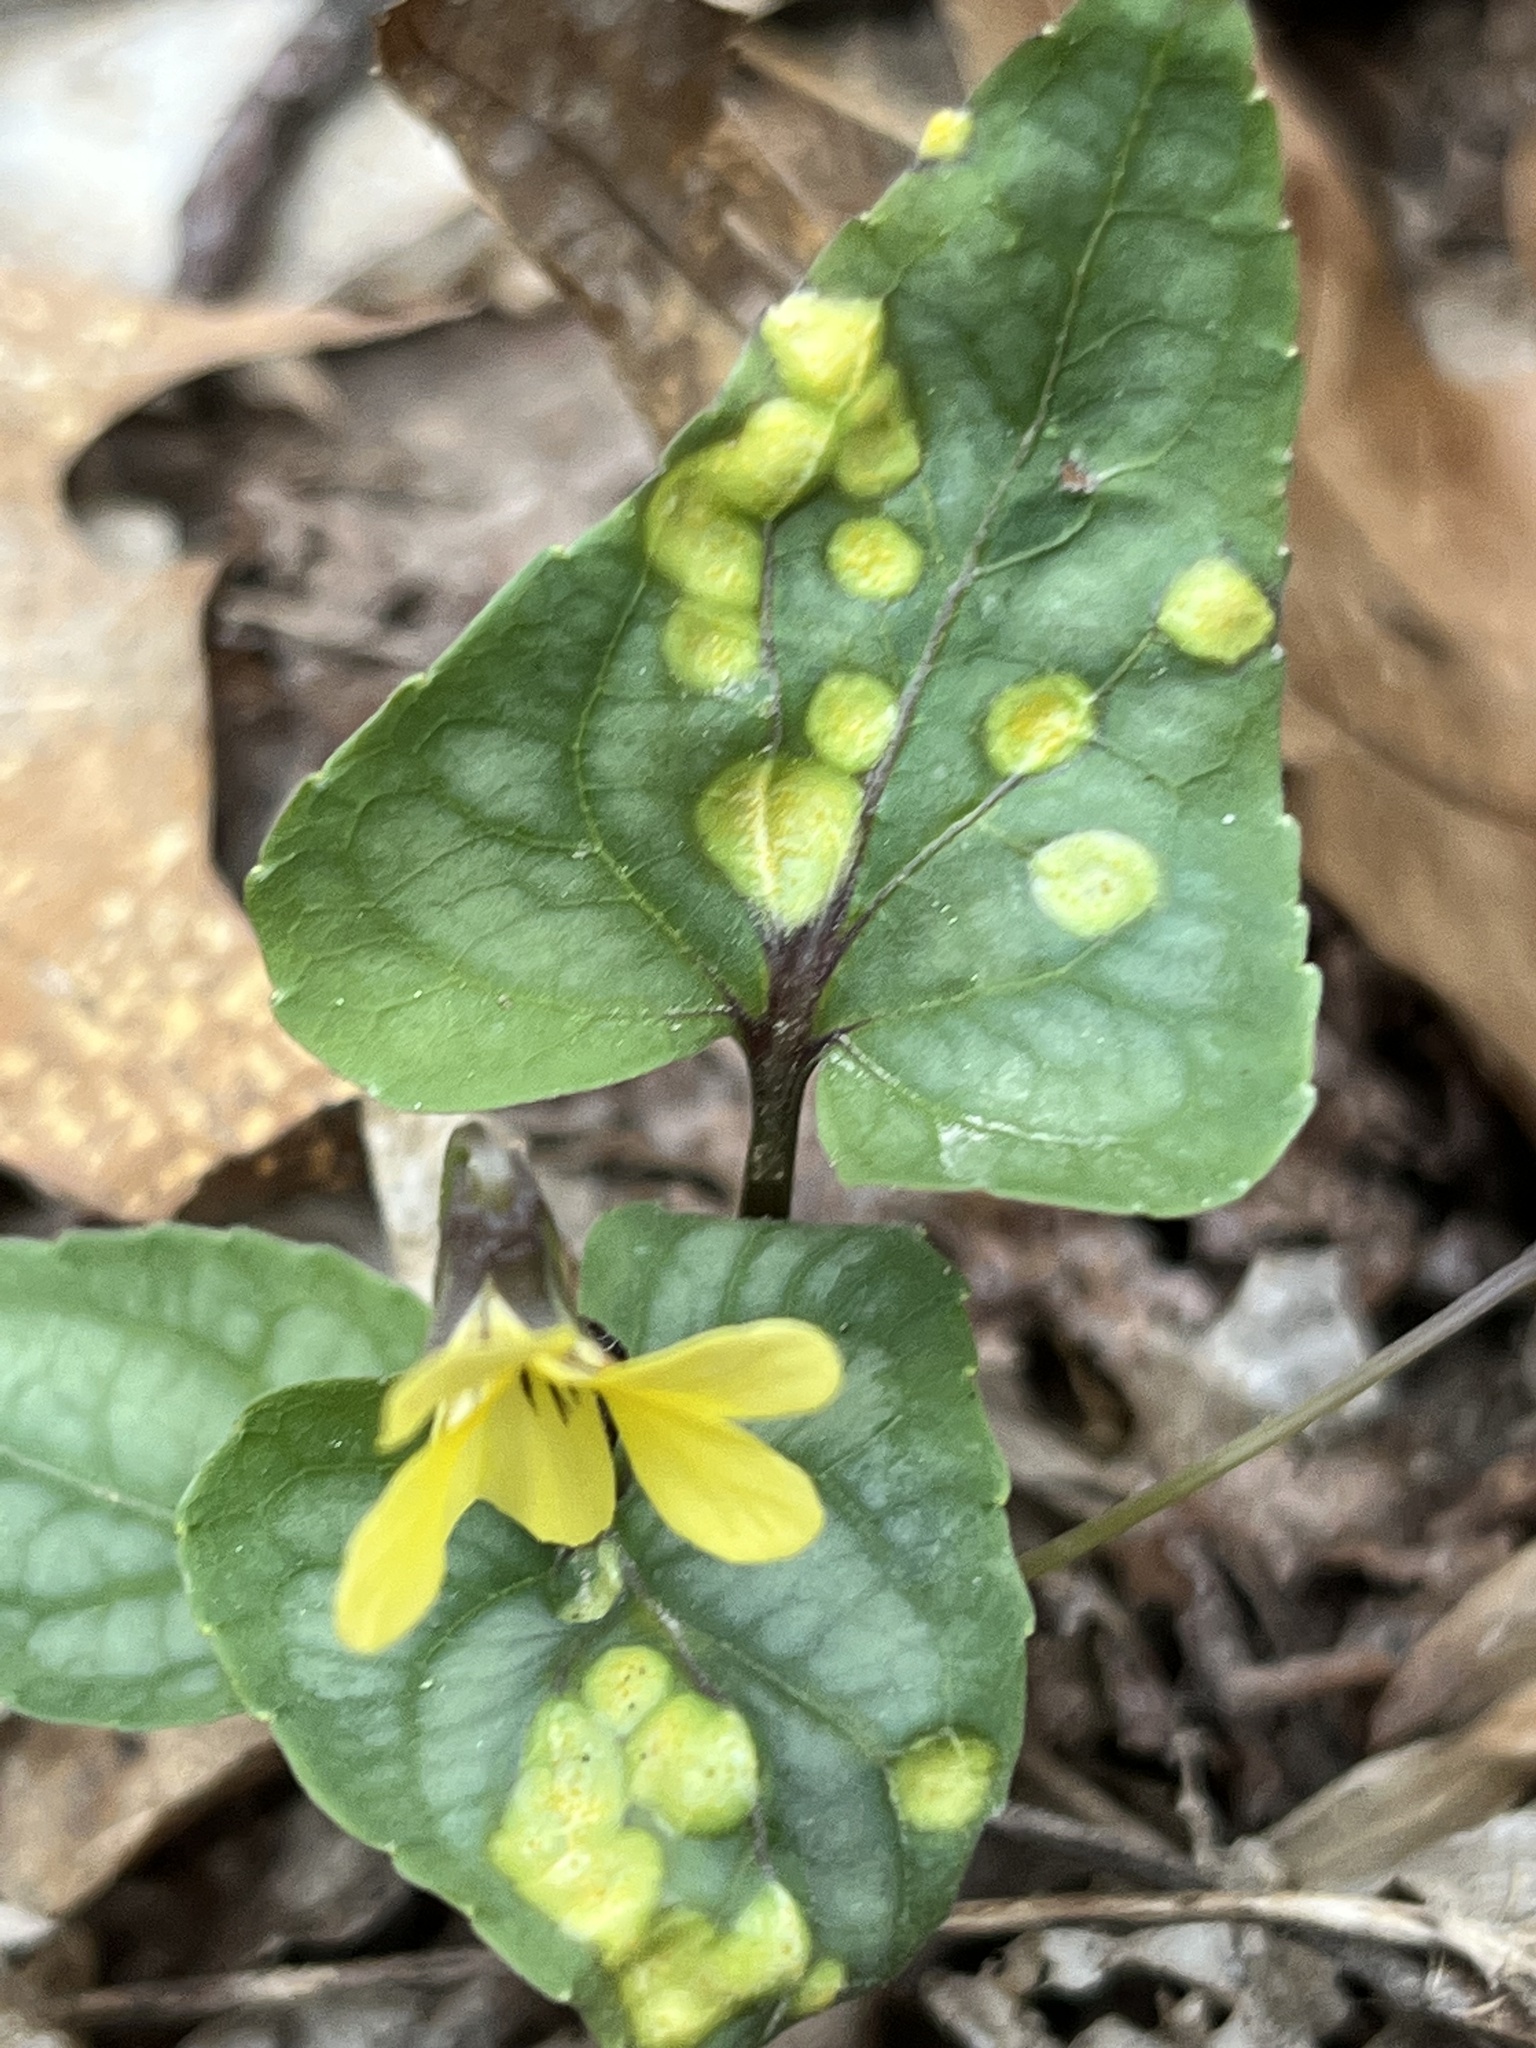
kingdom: Fungi
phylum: Basidiomycota
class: Pucciniomycetes
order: Pucciniales
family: Pucciniaceae
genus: Puccinia
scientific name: Puccinia violae
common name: Violet rust
